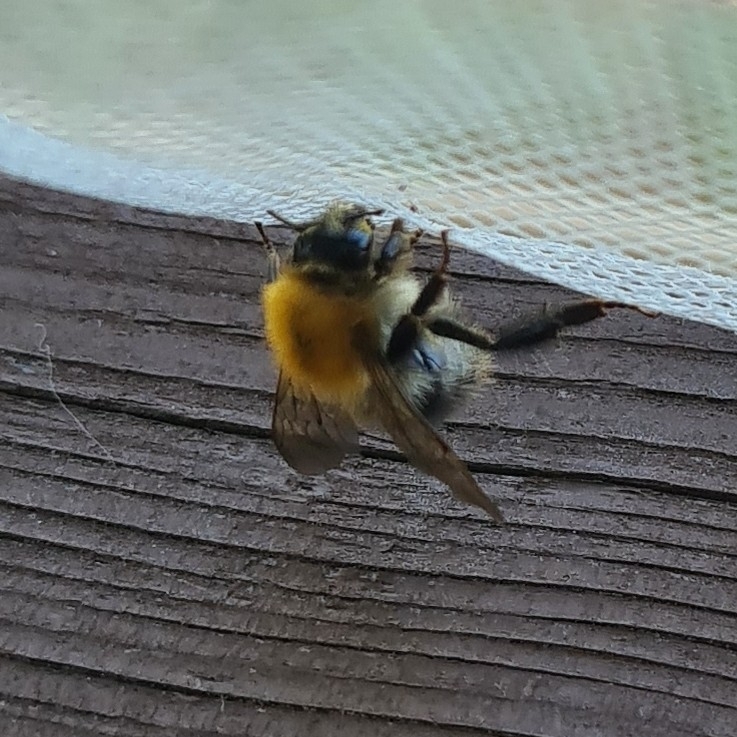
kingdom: Animalia
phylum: Arthropoda
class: Insecta
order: Hymenoptera
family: Apidae
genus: Bombus
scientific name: Bombus pascuorum
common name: Common carder bee
